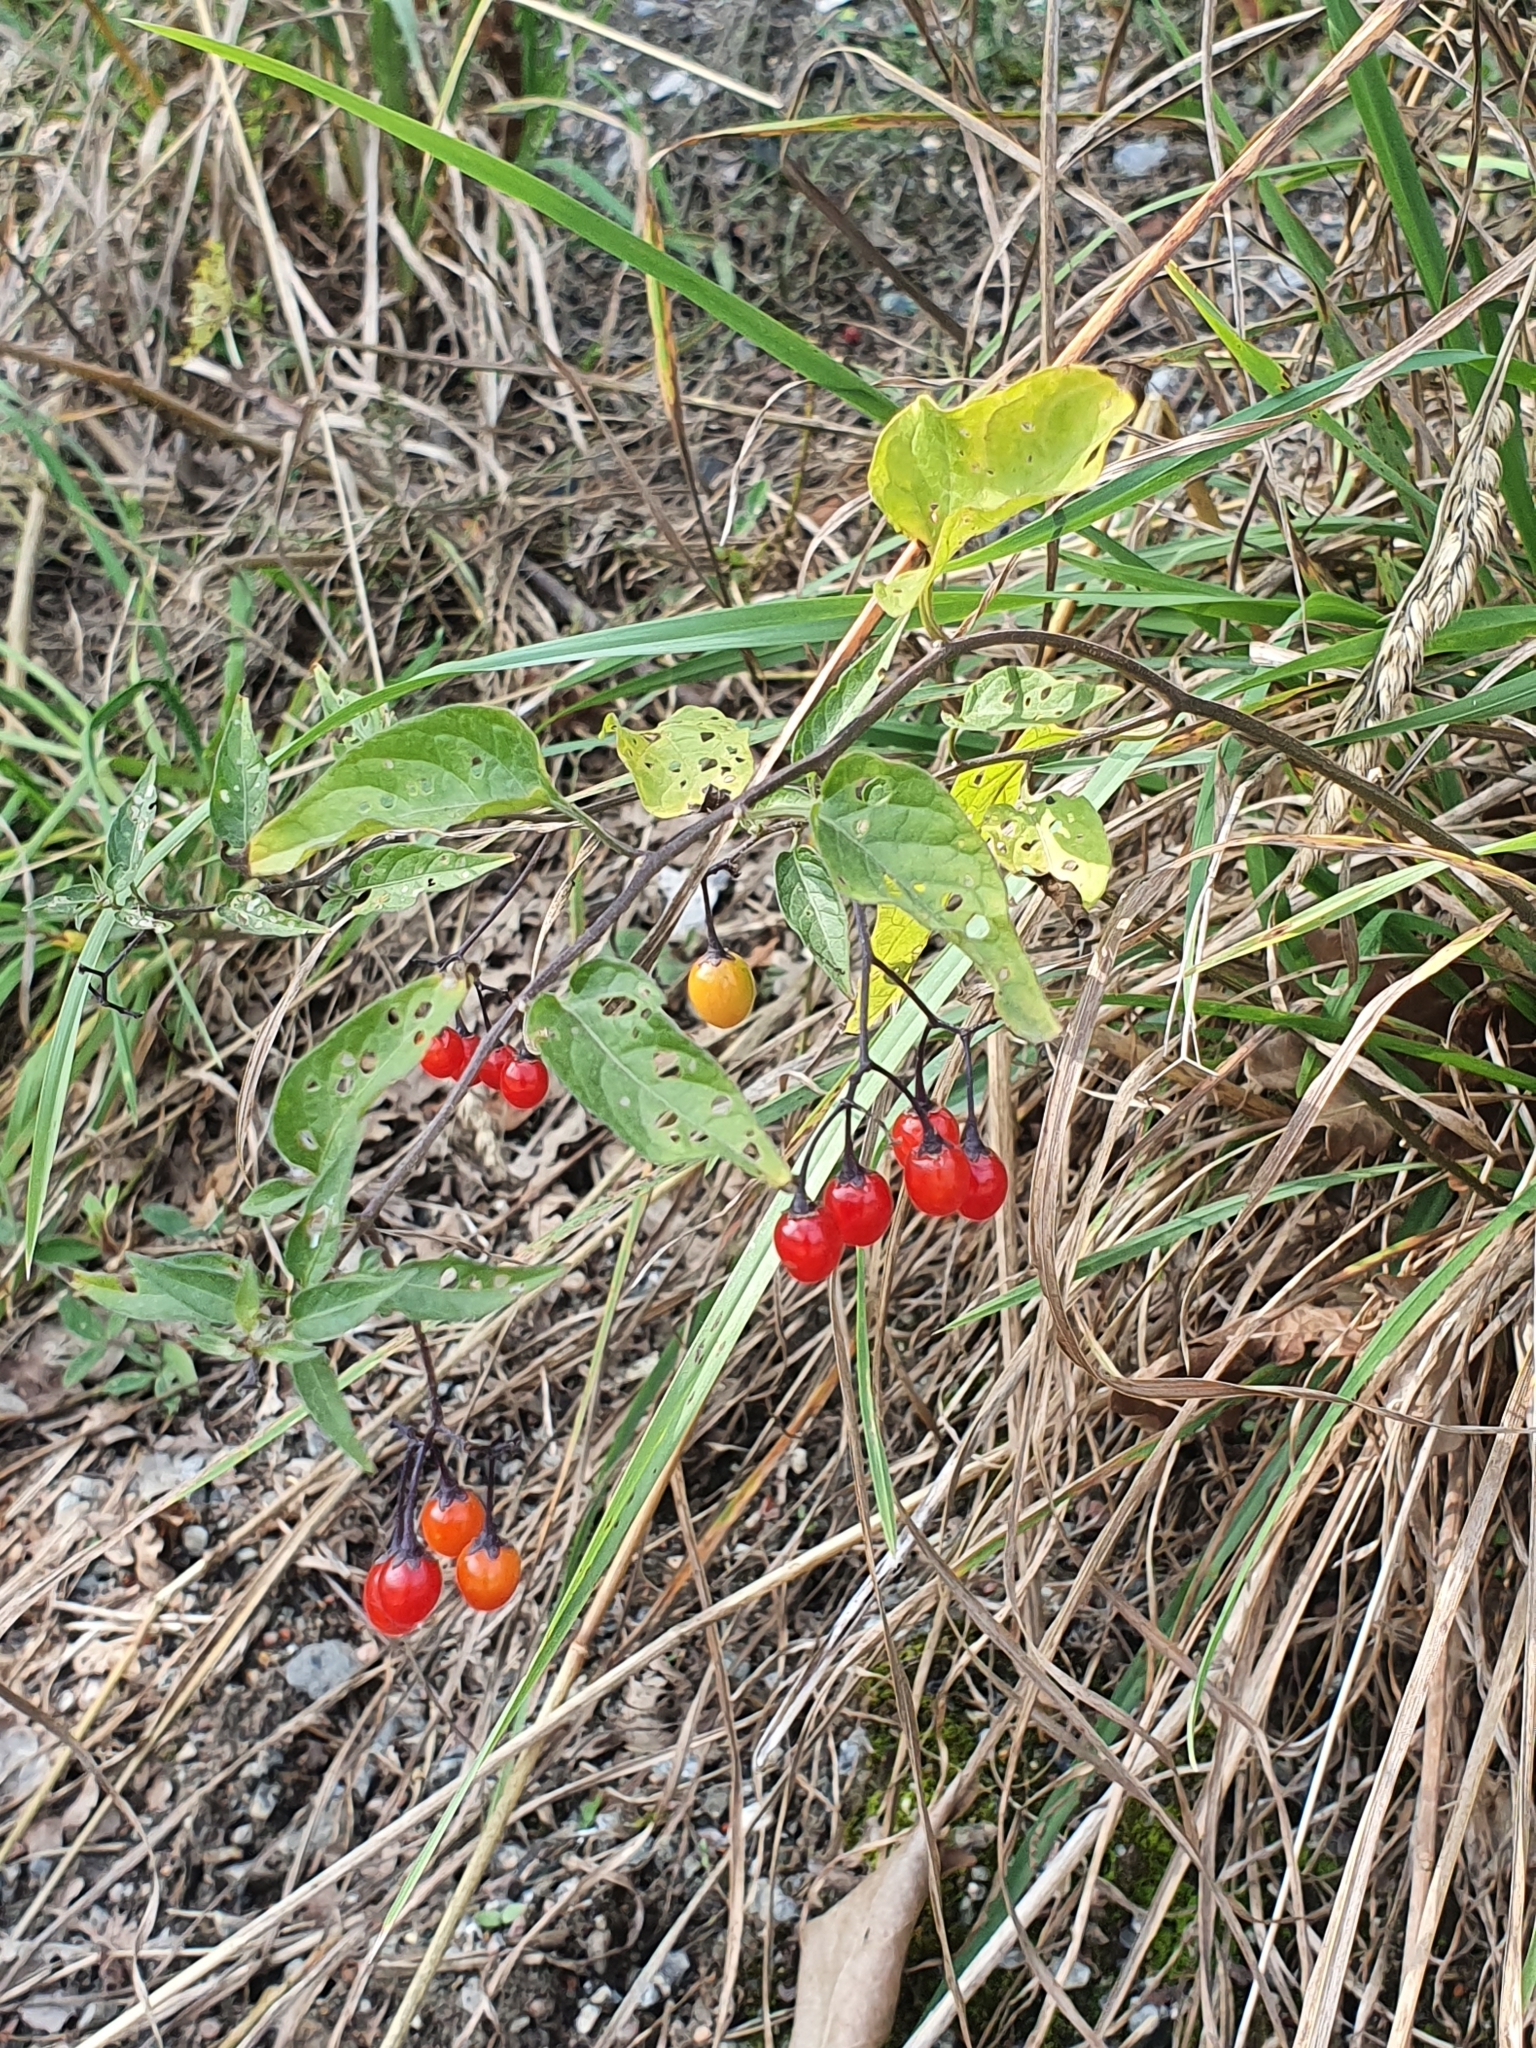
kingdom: Plantae
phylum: Tracheophyta
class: Magnoliopsida
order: Solanales
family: Solanaceae
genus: Solanum
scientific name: Solanum dulcamara
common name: Climbing nightshade
